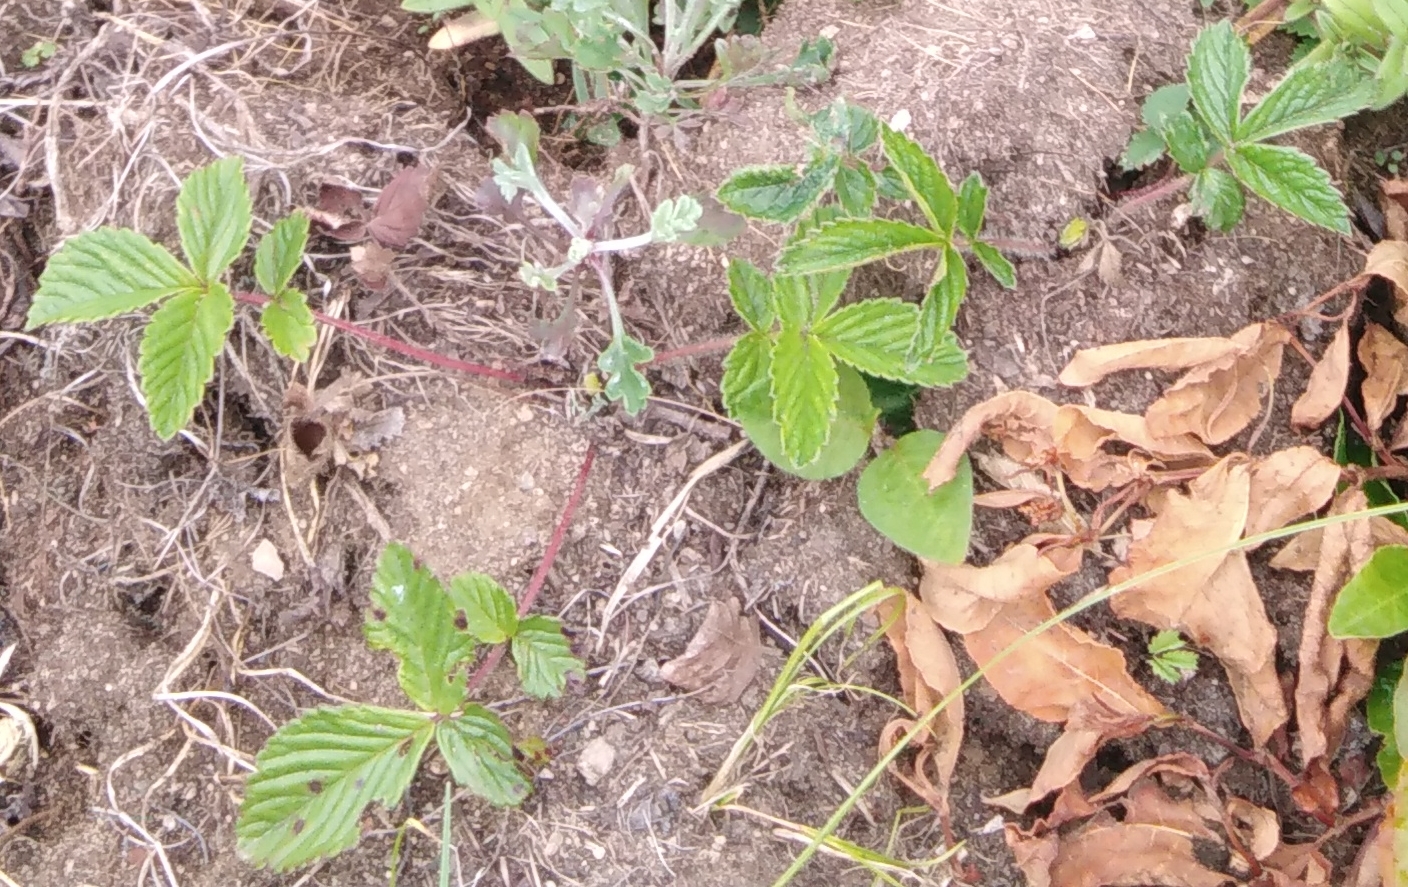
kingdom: Plantae
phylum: Tracheophyta
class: Magnoliopsida
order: Rosales
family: Rosaceae
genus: Potentilla
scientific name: Potentilla fragarioides
